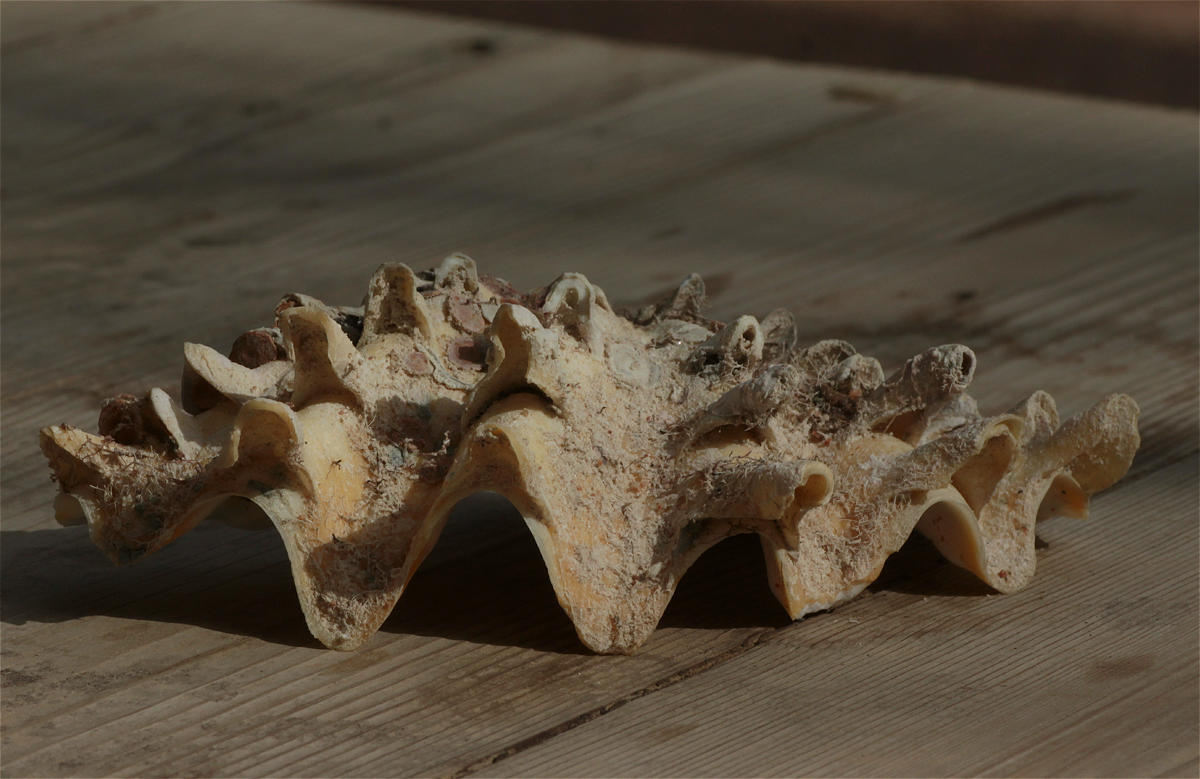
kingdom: Animalia
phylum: Mollusca
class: Bivalvia
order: Cardiida
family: Cardiidae
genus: Tridacna
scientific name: Tridacna squamosina
